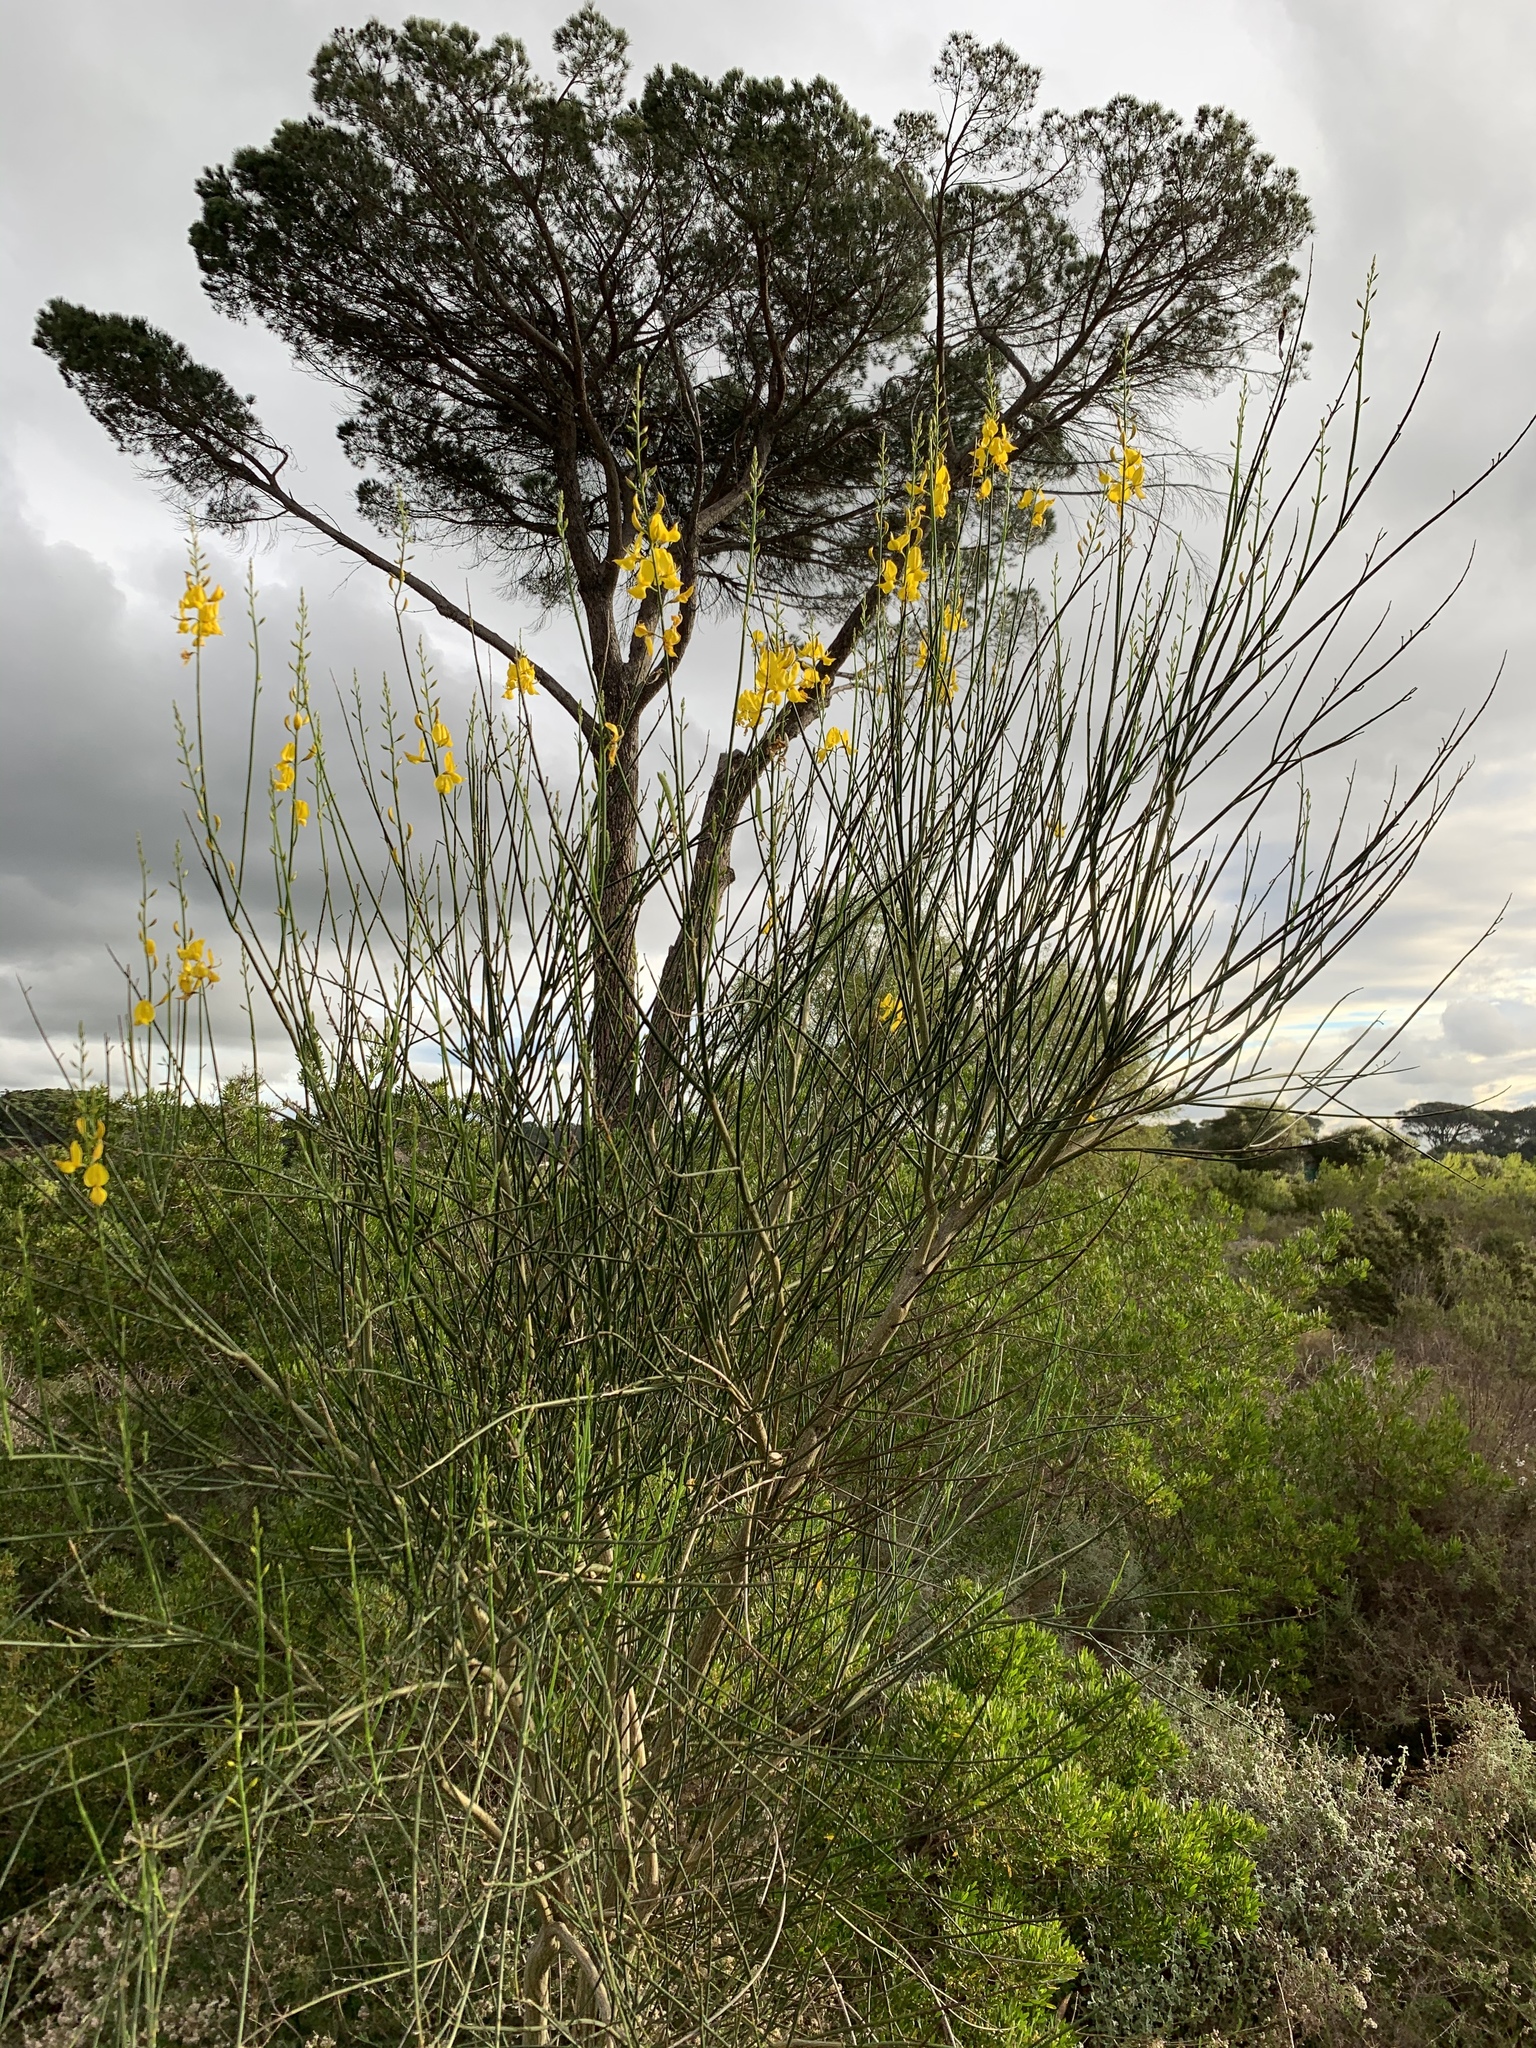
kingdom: Plantae
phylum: Tracheophyta
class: Magnoliopsida
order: Fabales
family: Fabaceae
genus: Spartium
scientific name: Spartium junceum
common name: Spanish broom
